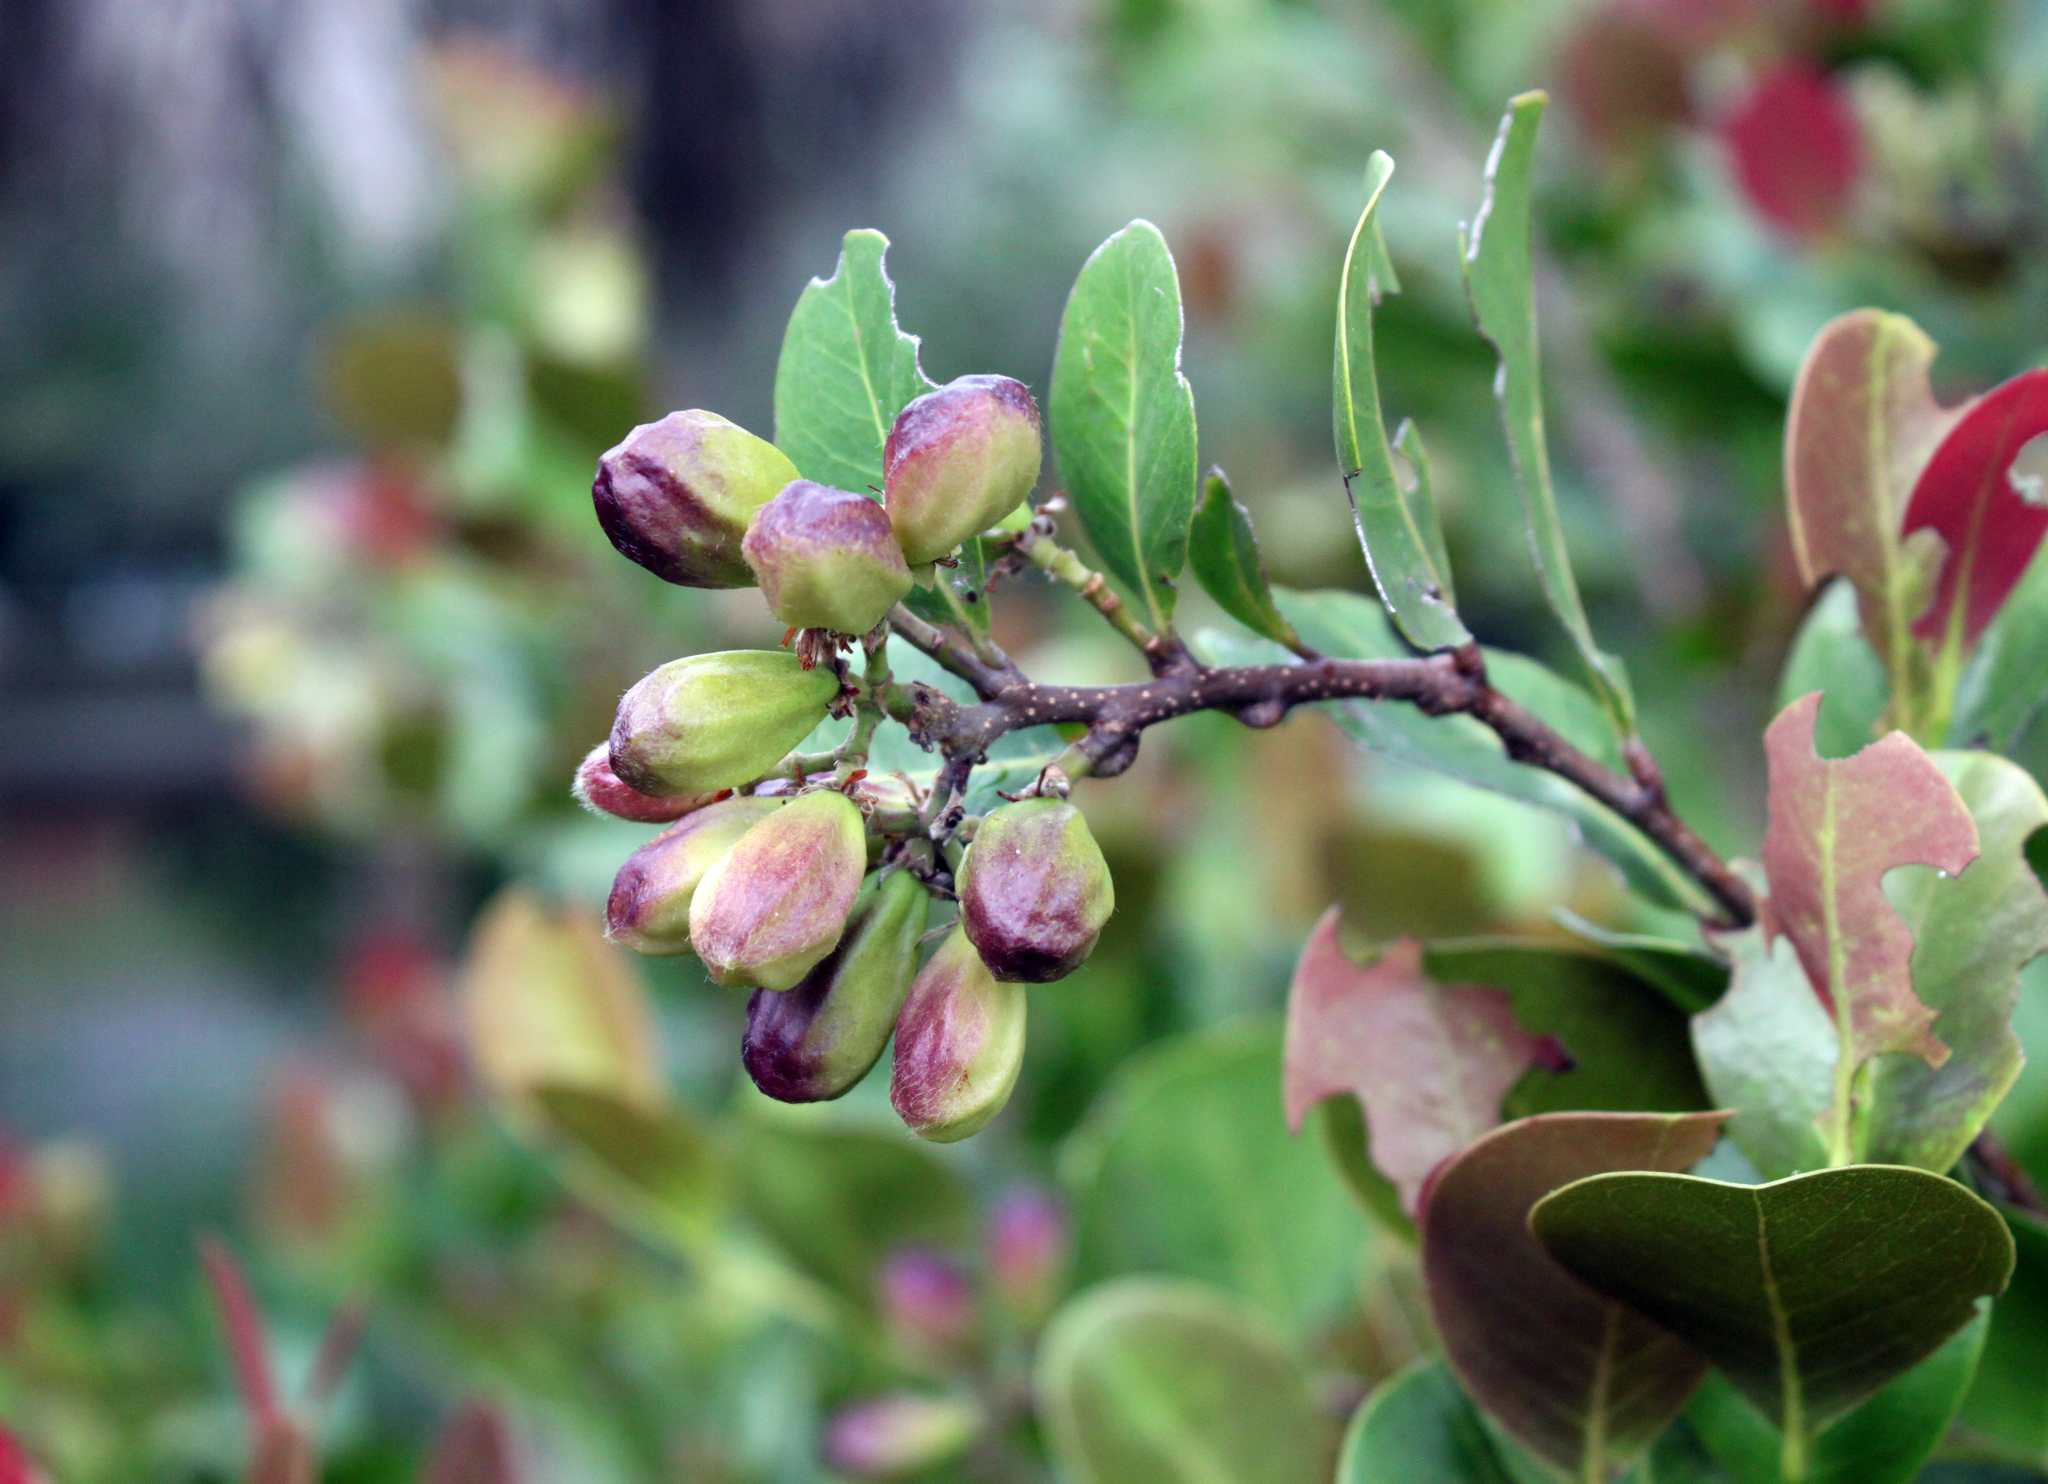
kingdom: Plantae
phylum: Tracheophyta
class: Magnoliopsida
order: Malpighiales
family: Chrysobalanaceae
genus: Chrysobalanus
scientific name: Chrysobalanus icaco
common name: Coco plum
